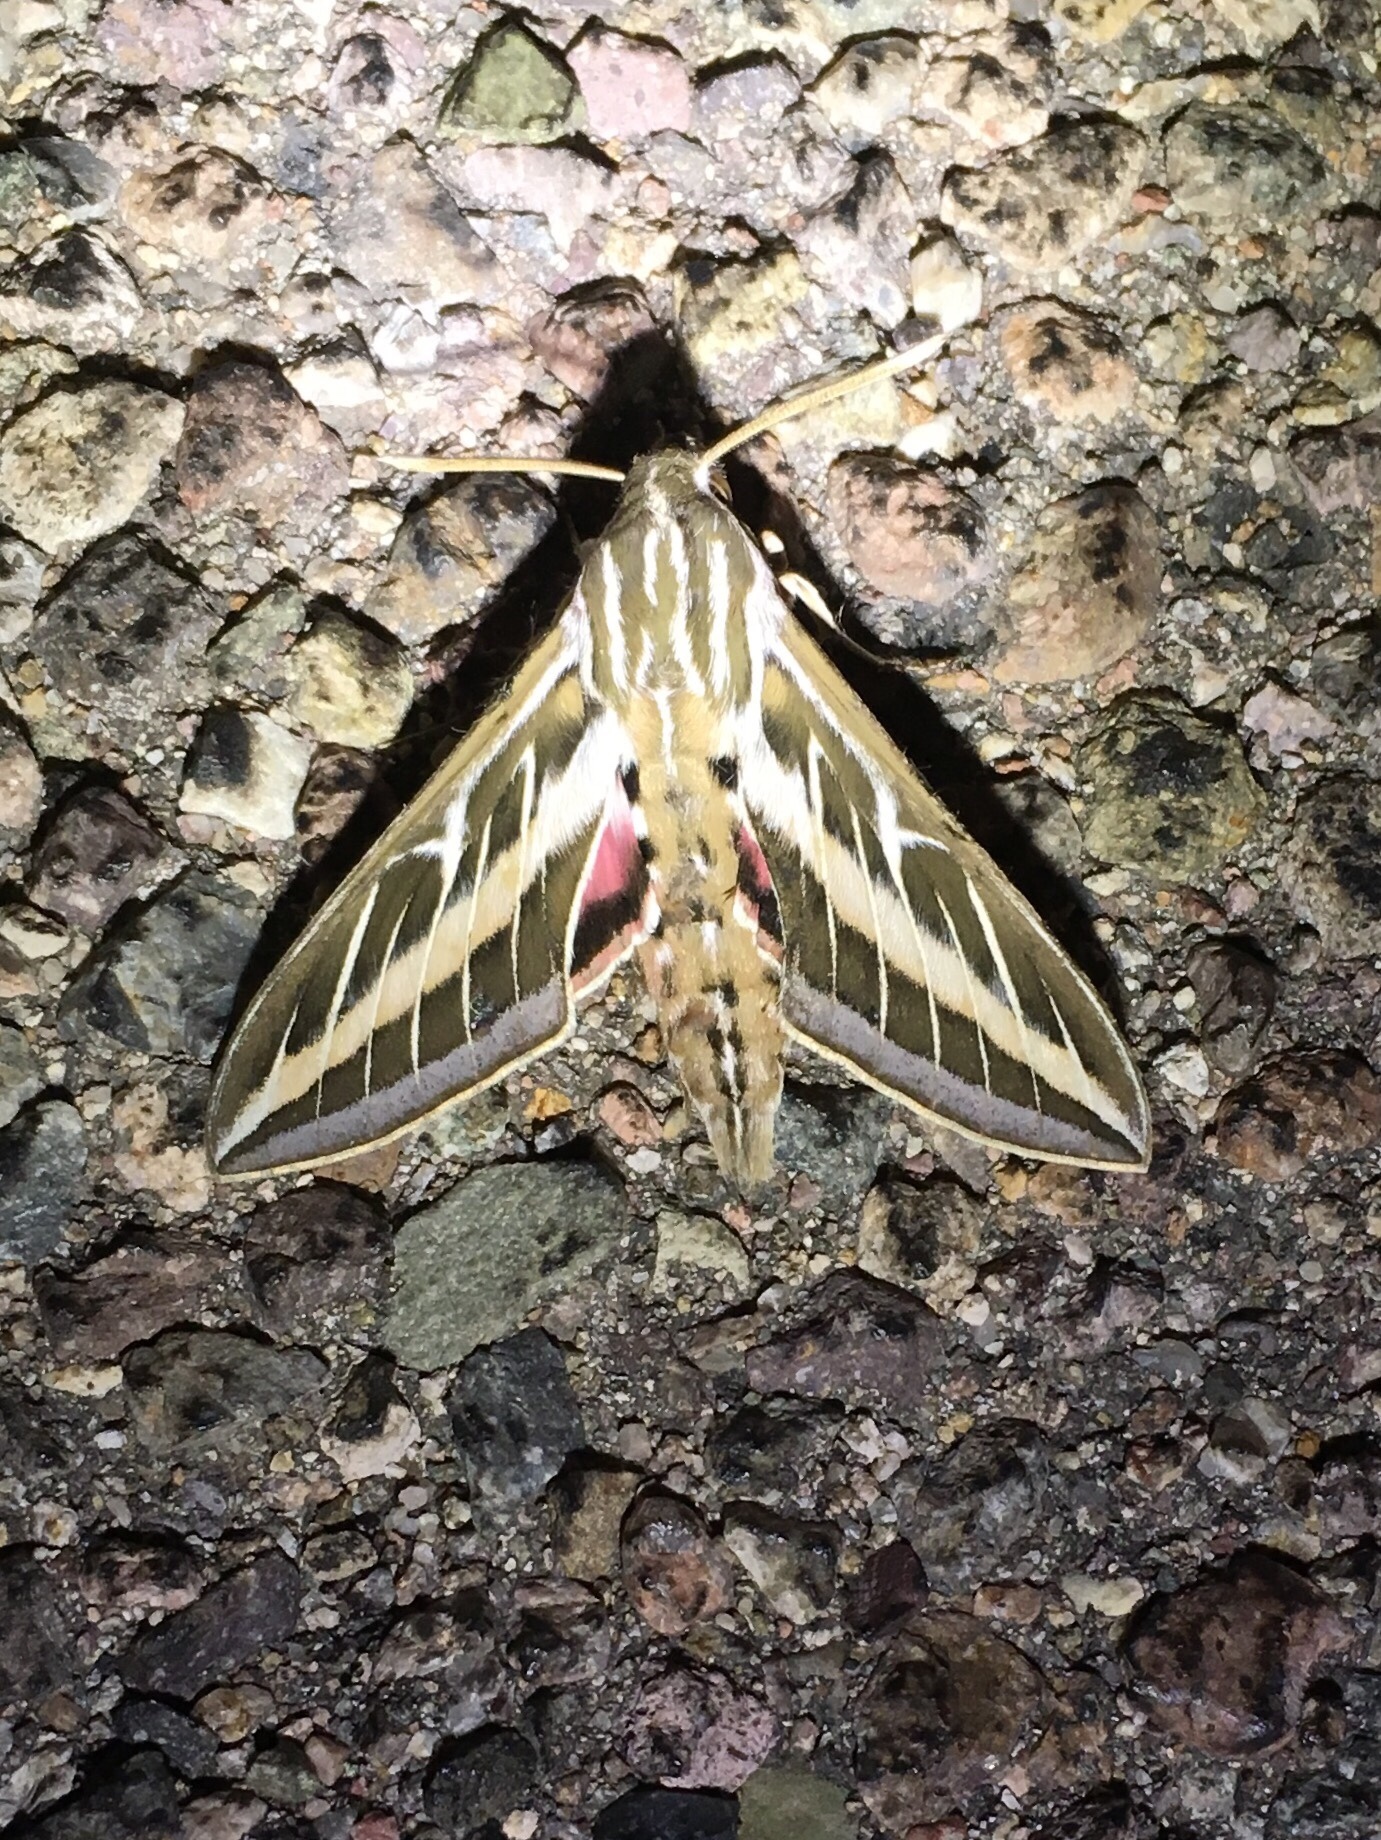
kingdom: Animalia
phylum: Arthropoda
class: Insecta
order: Lepidoptera
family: Sphingidae
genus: Hyles
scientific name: Hyles lineata
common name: White-lined sphinx
